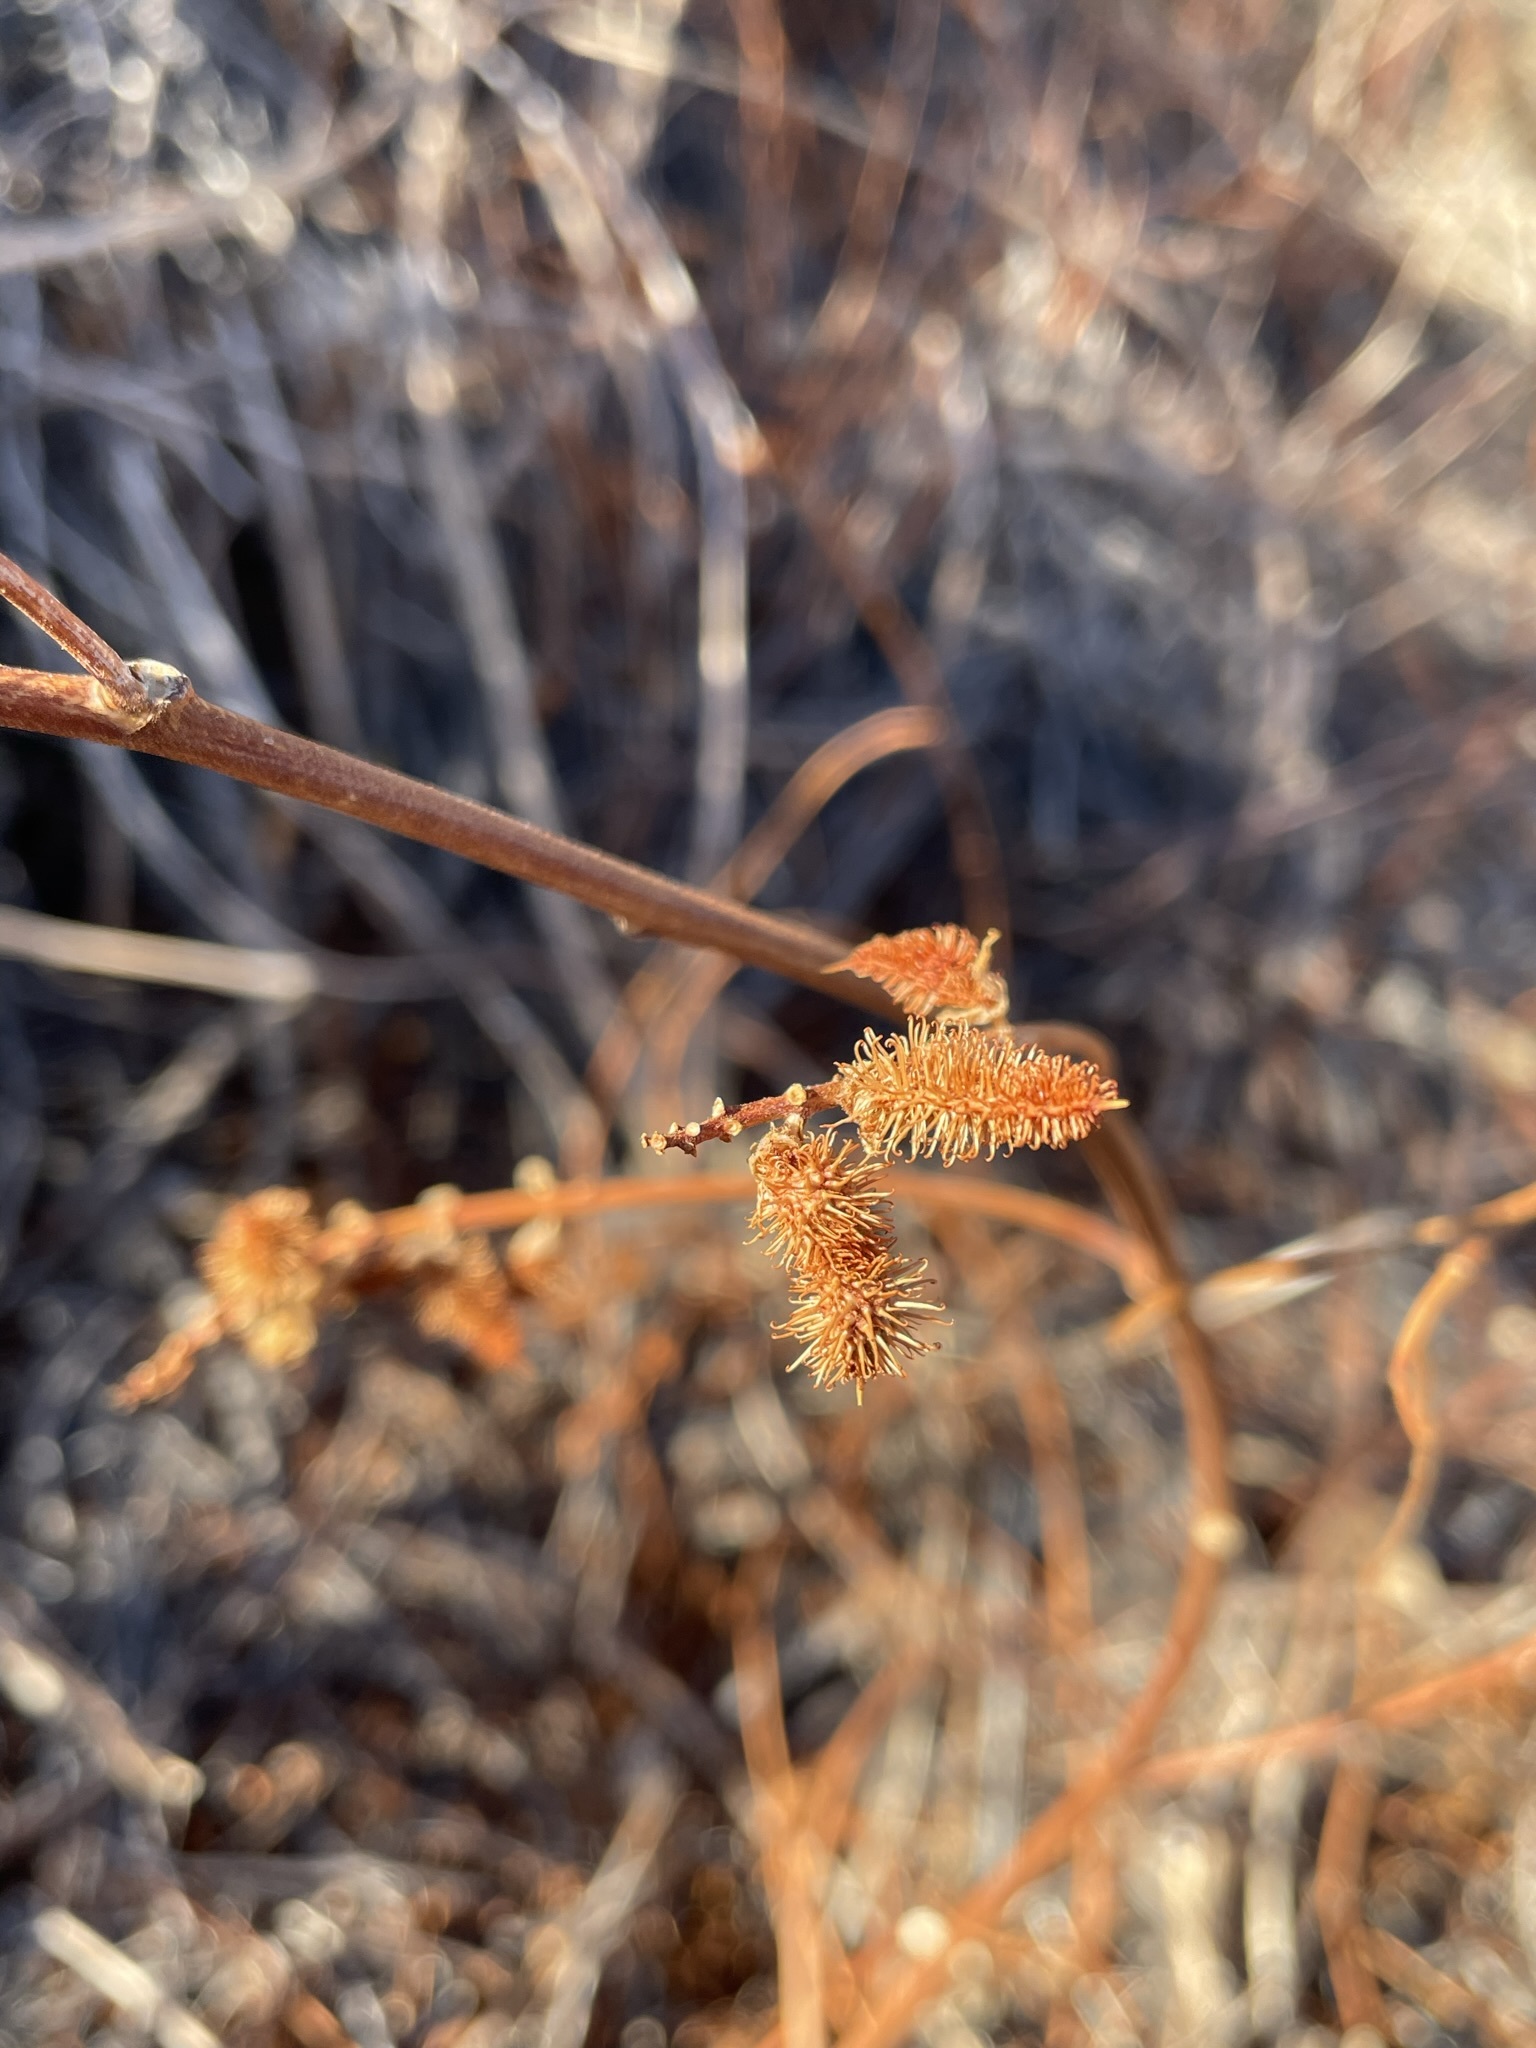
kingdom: Plantae
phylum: Tracheophyta
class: Magnoliopsida
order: Fabales
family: Fabaceae
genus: Glycyrrhiza
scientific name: Glycyrrhiza lepidota
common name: American liquorice
